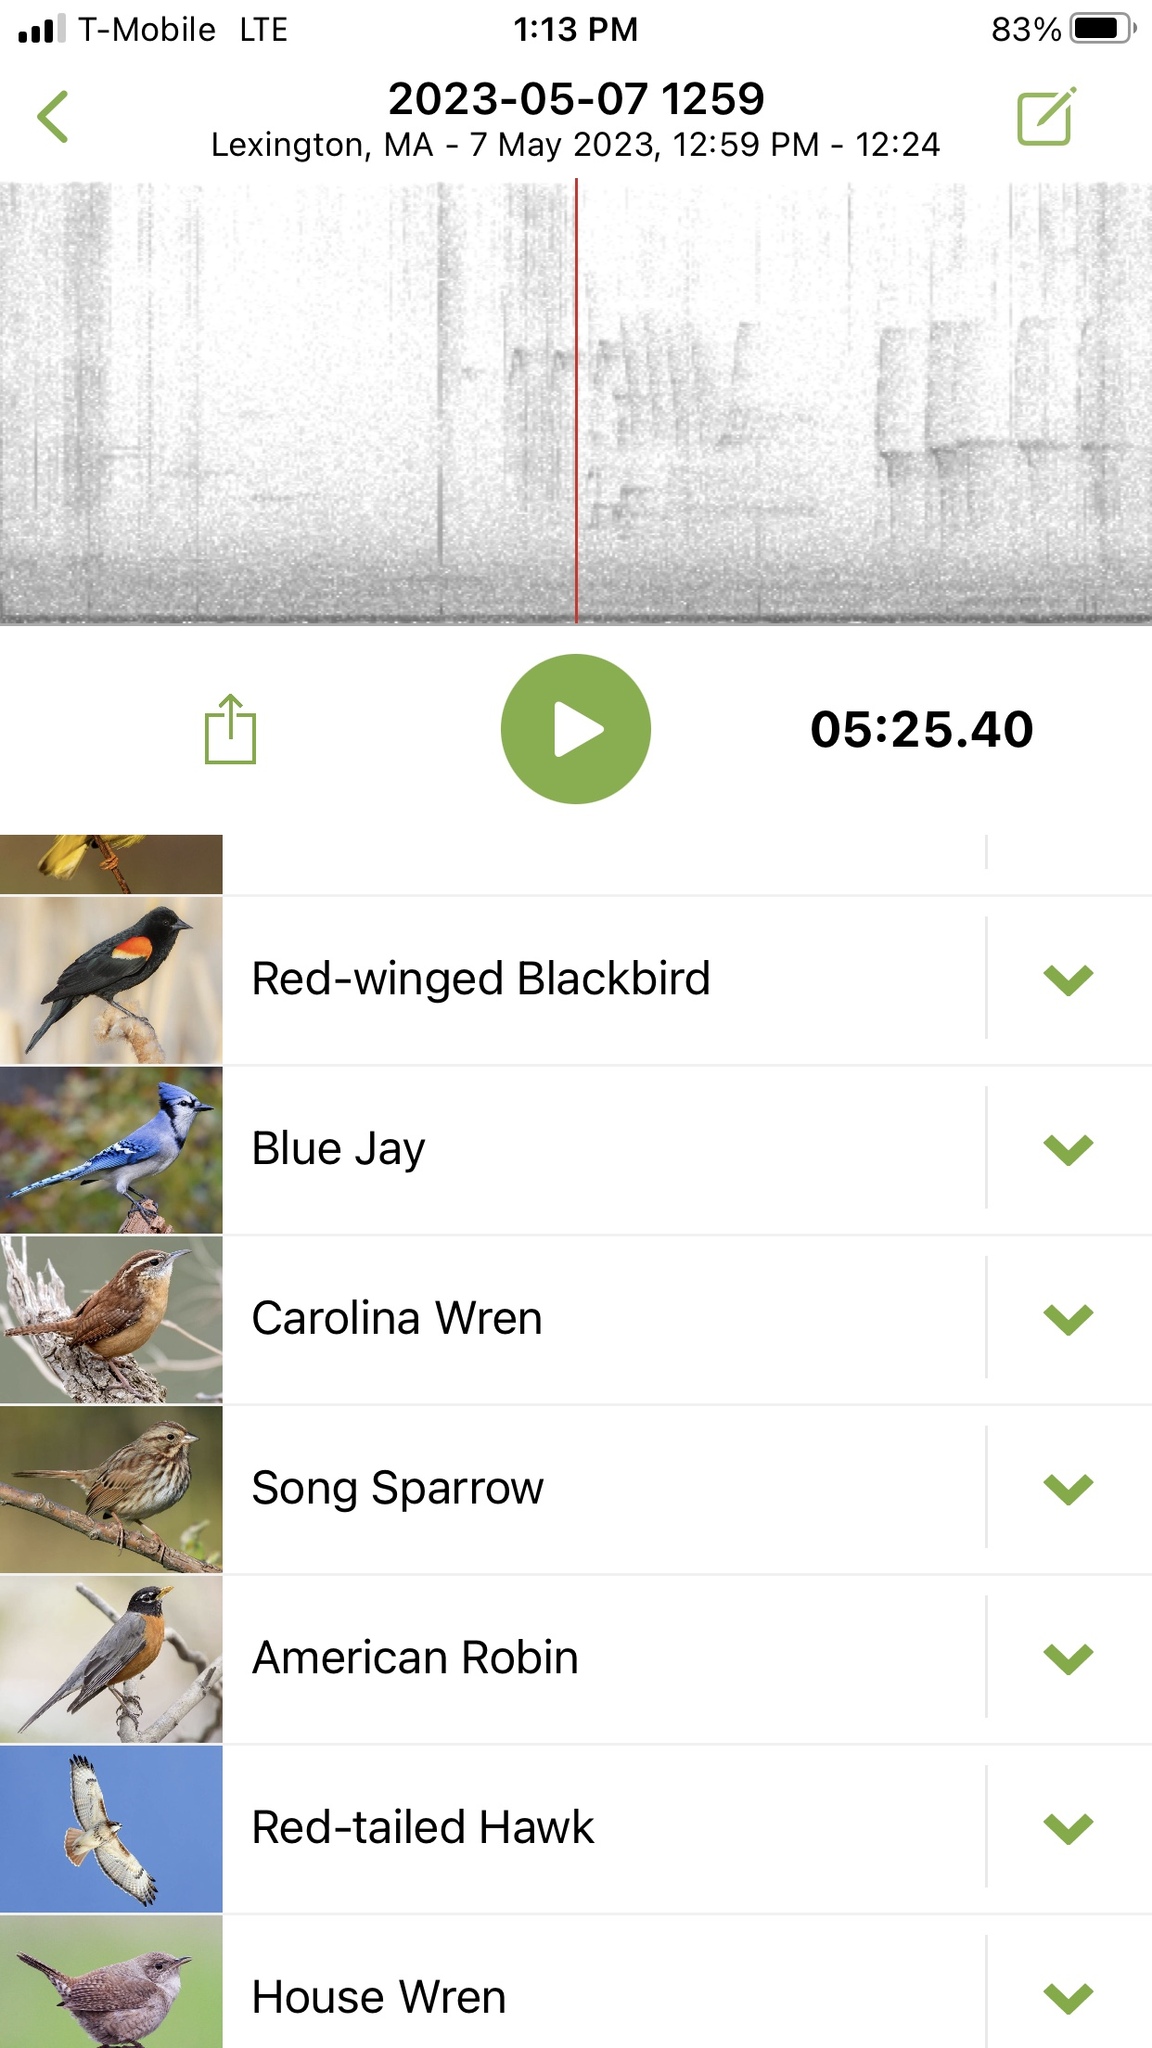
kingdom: Animalia
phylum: Chordata
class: Aves
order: Passeriformes
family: Turdidae
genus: Turdus
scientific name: Turdus migratorius
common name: American robin
